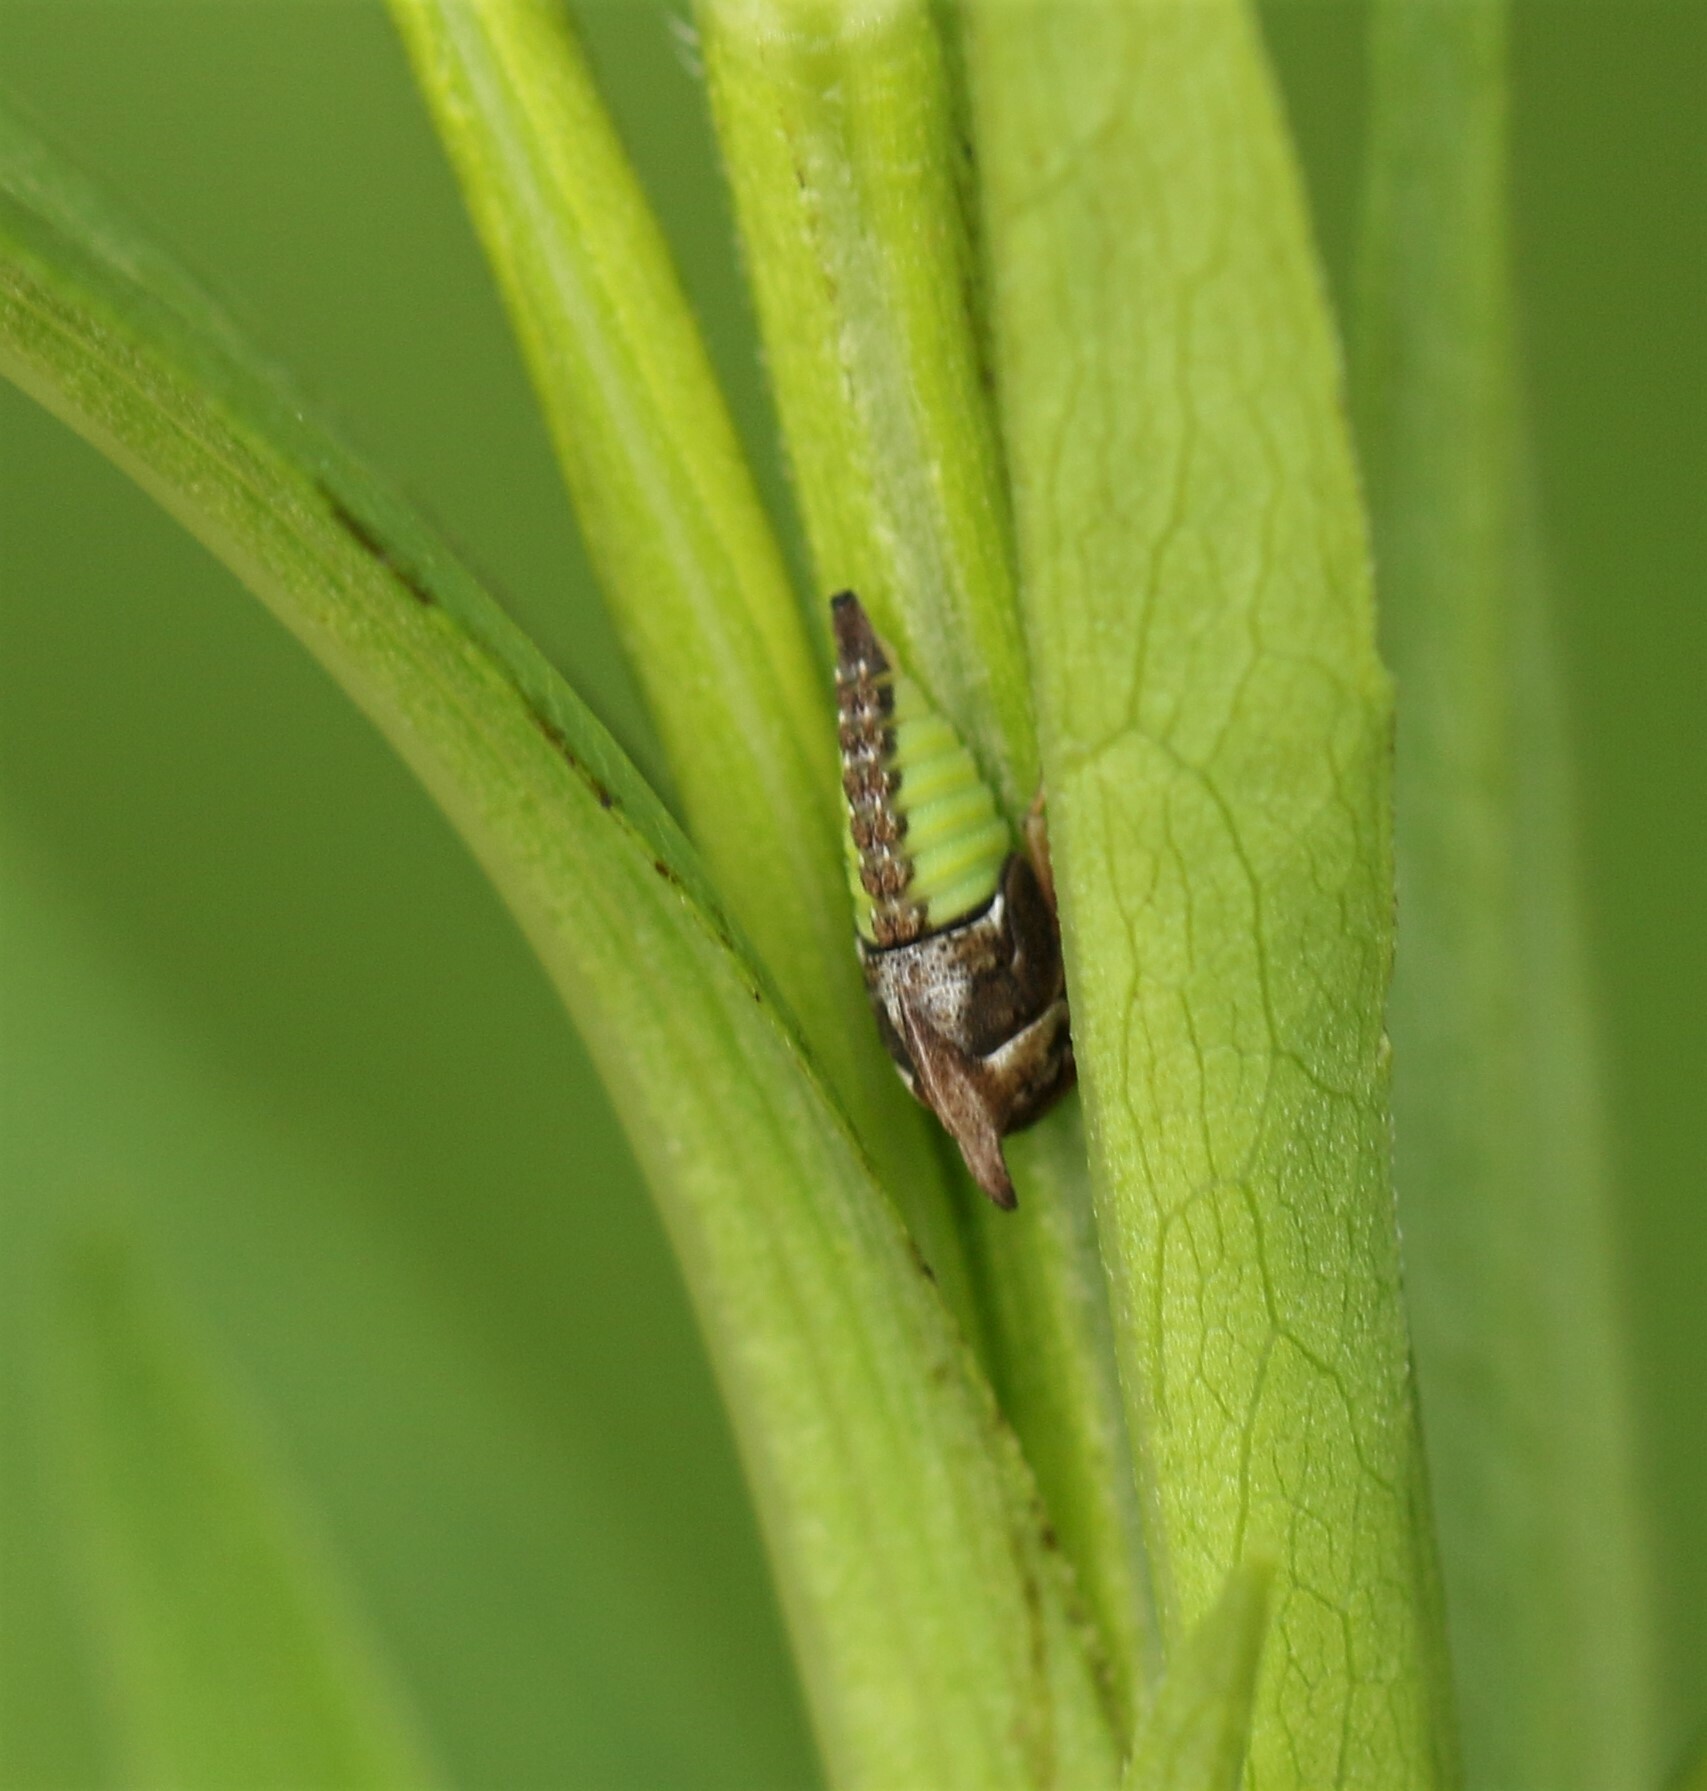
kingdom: Animalia
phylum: Arthropoda
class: Insecta
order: Hemiptera
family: Membracidae
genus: Enchenopa
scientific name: Enchenopa latipes
